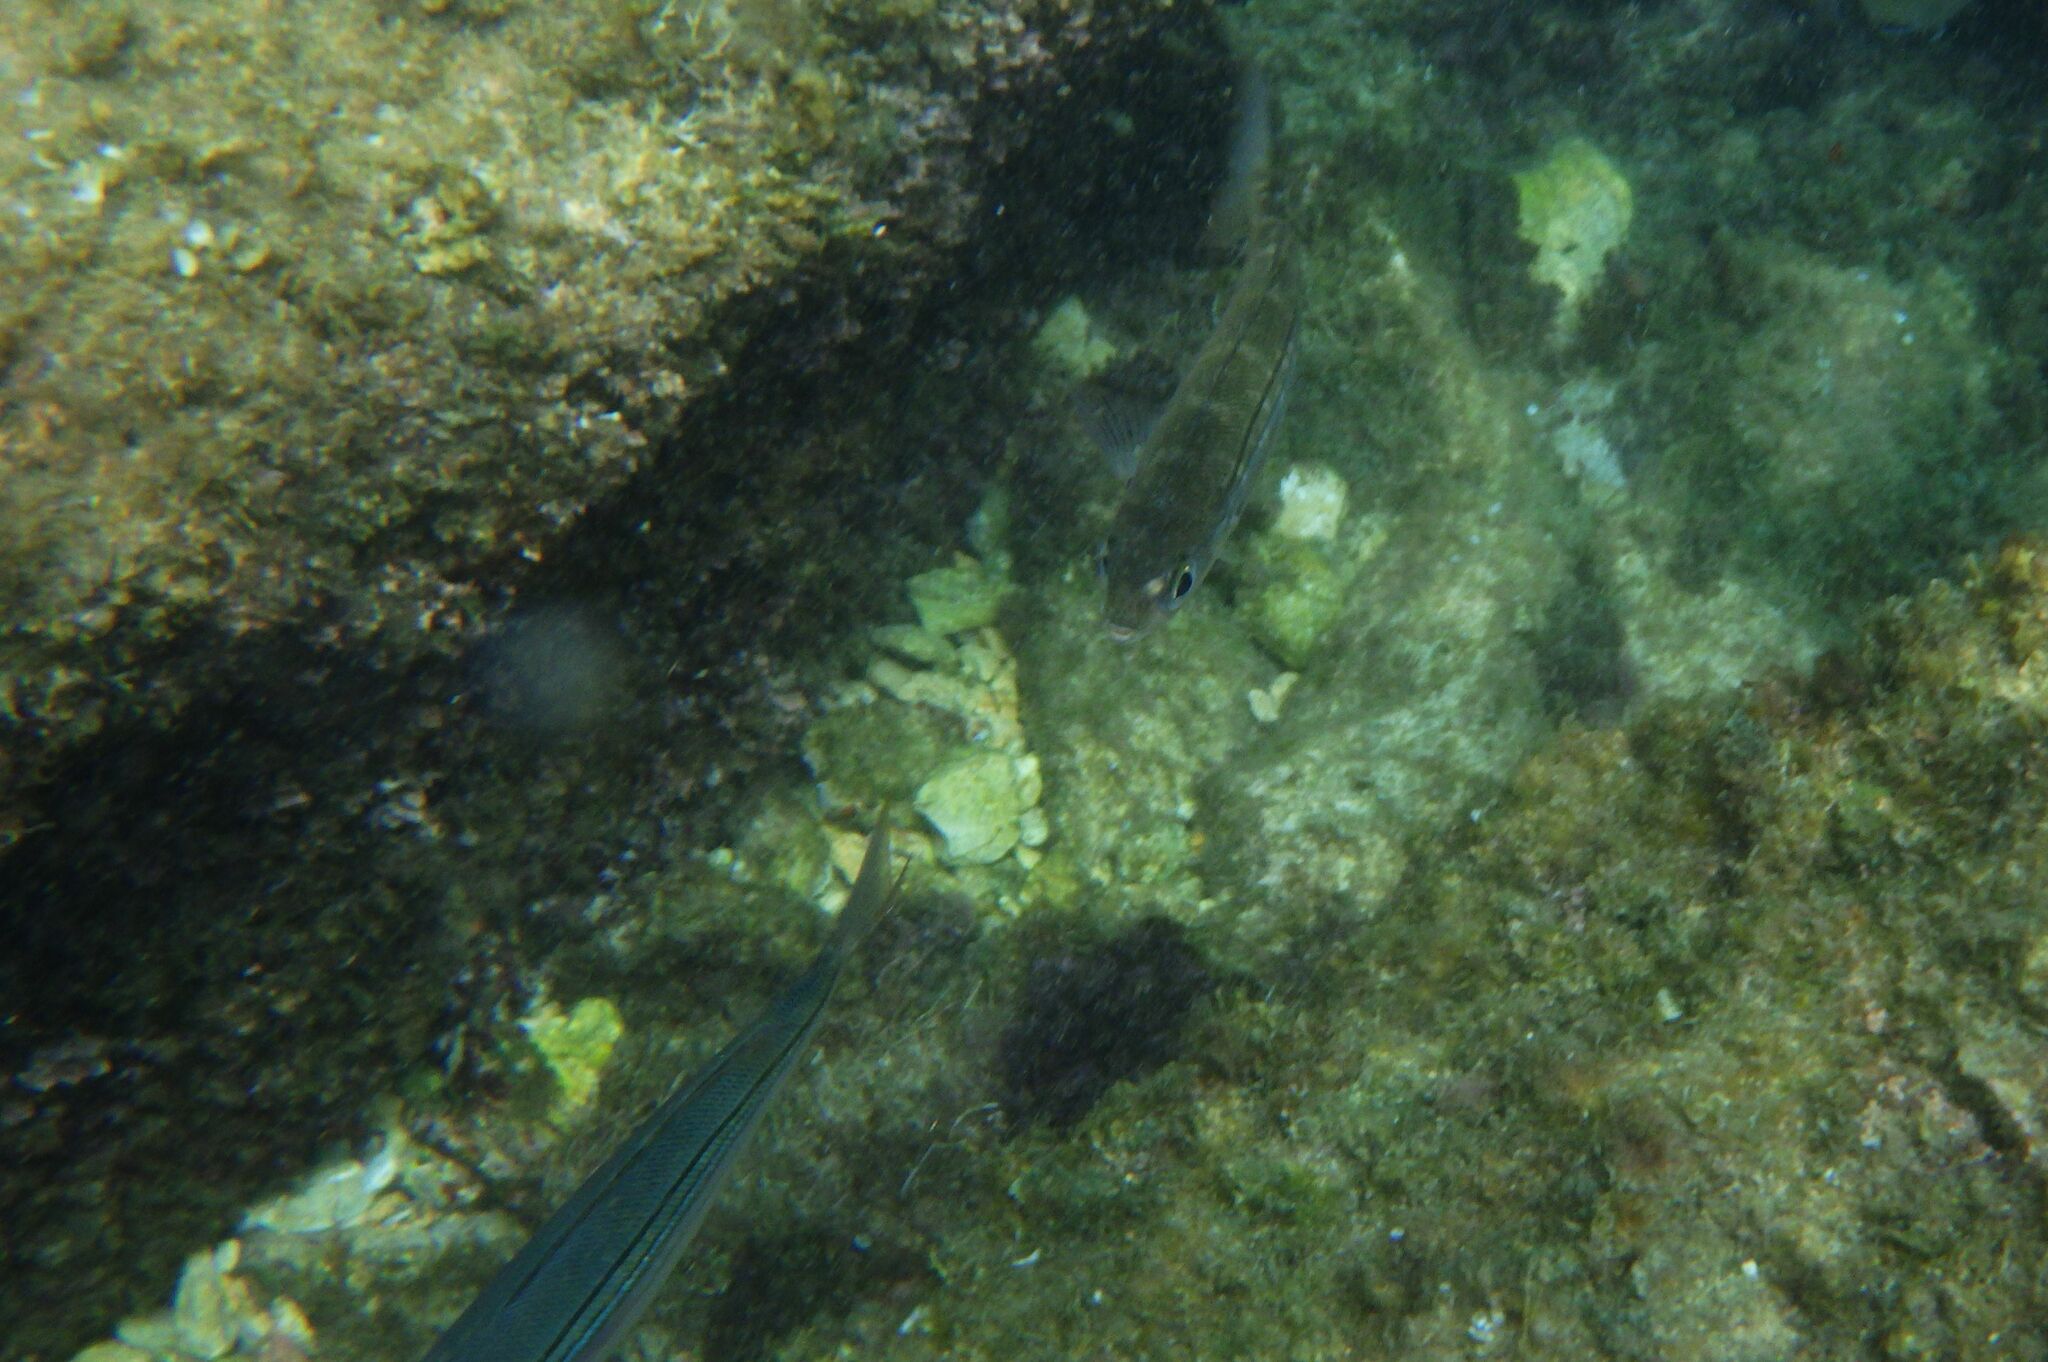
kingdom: Animalia
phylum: Chordata
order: Perciformes
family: Sparidae
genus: Boops
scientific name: Boops boops
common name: Bogue
